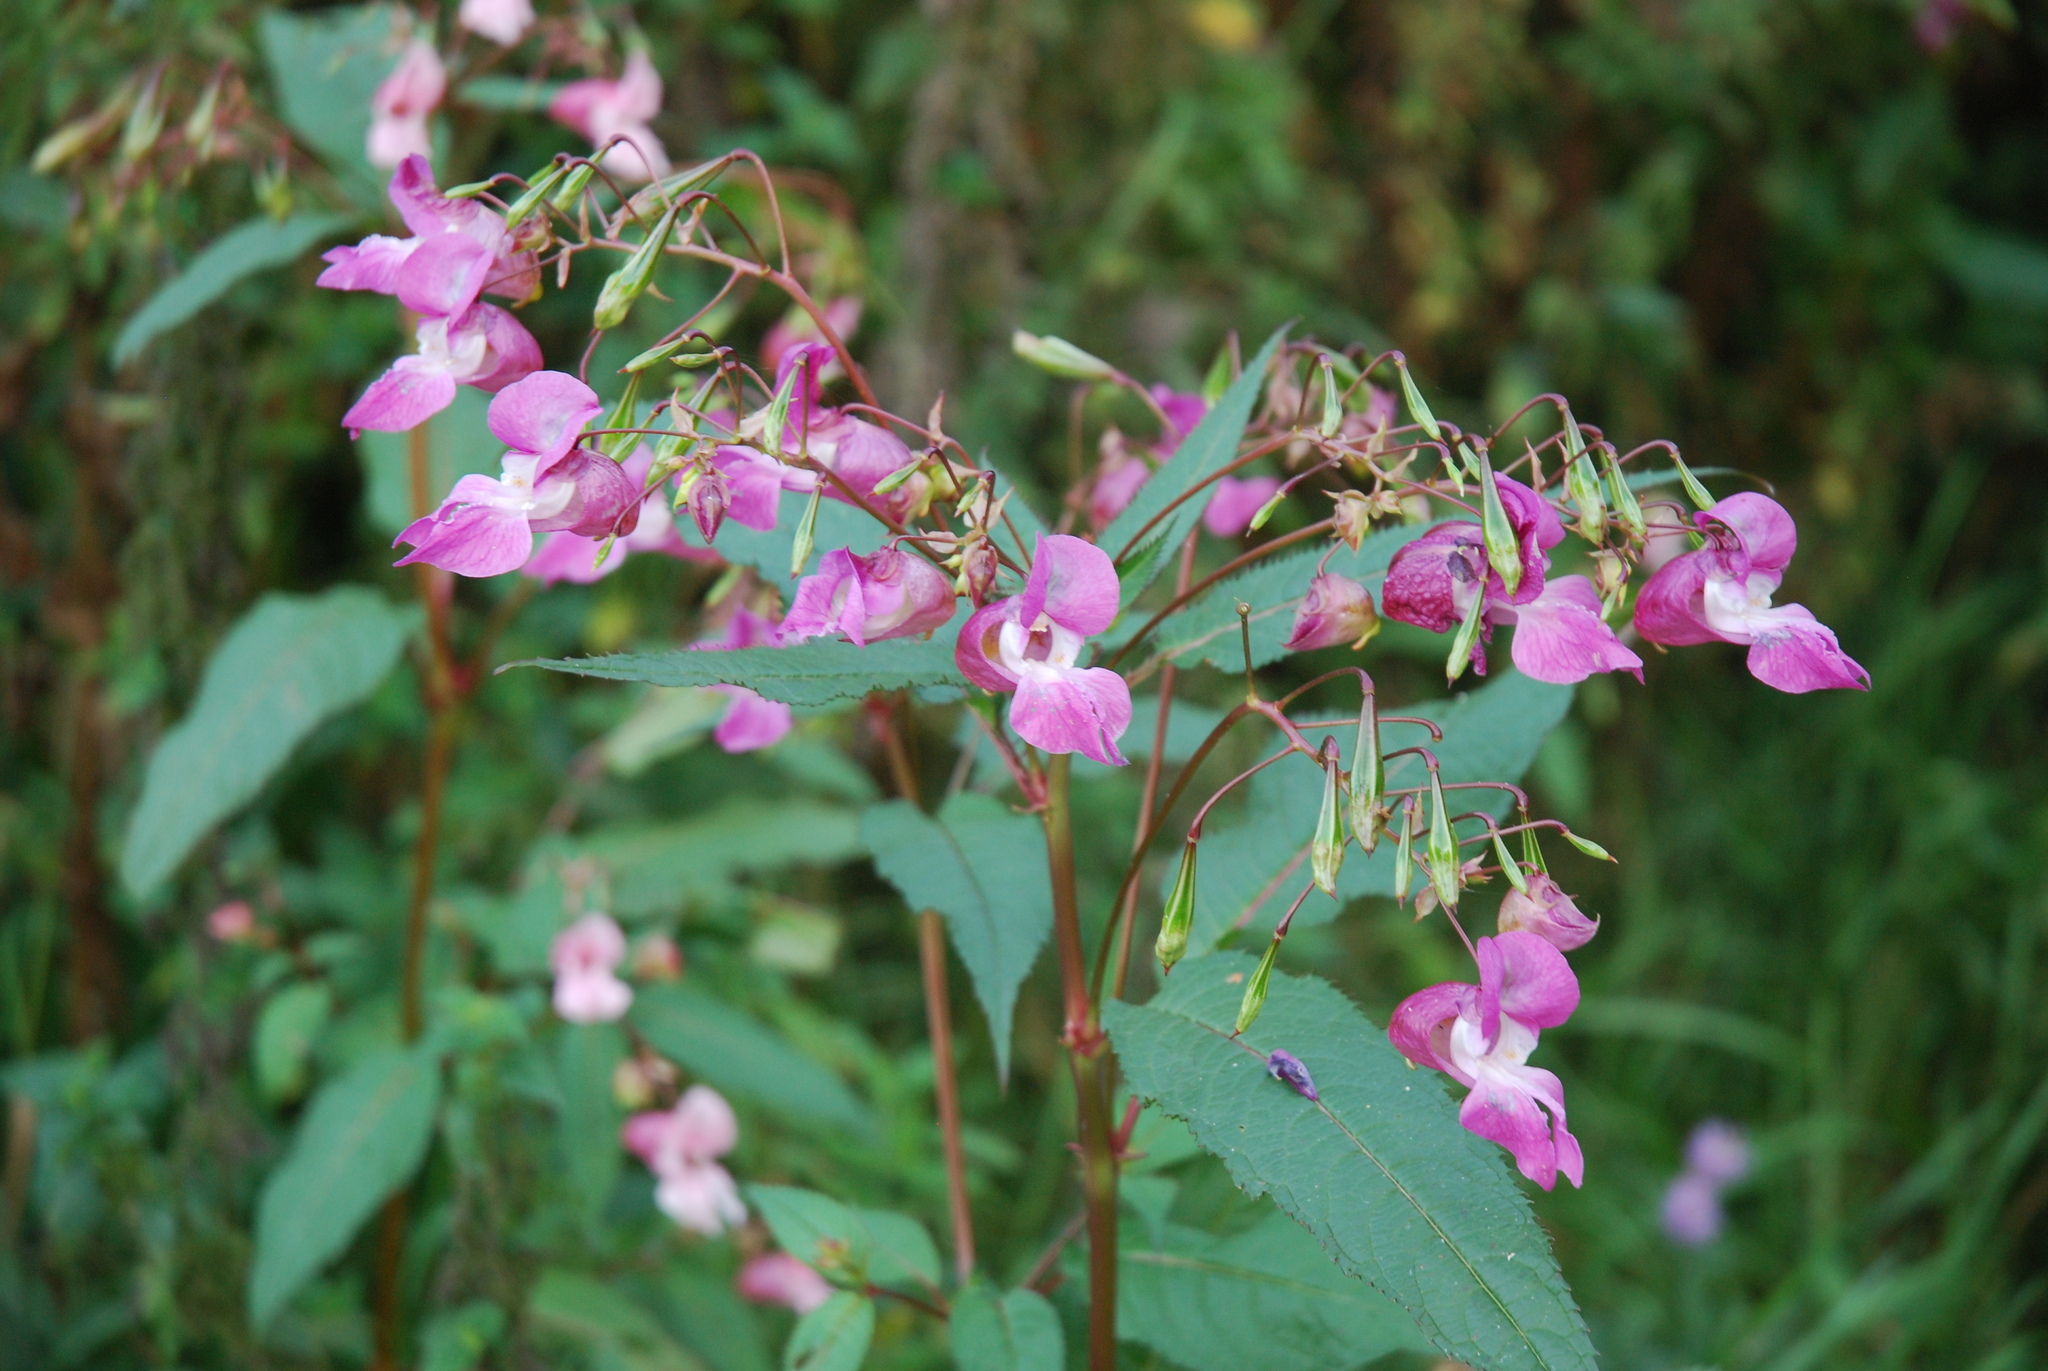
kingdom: Plantae
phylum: Tracheophyta
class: Magnoliopsida
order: Ericales
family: Balsaminaceae
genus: Impatiens
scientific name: Impatiens glandulifera
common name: Himalayan balsam
